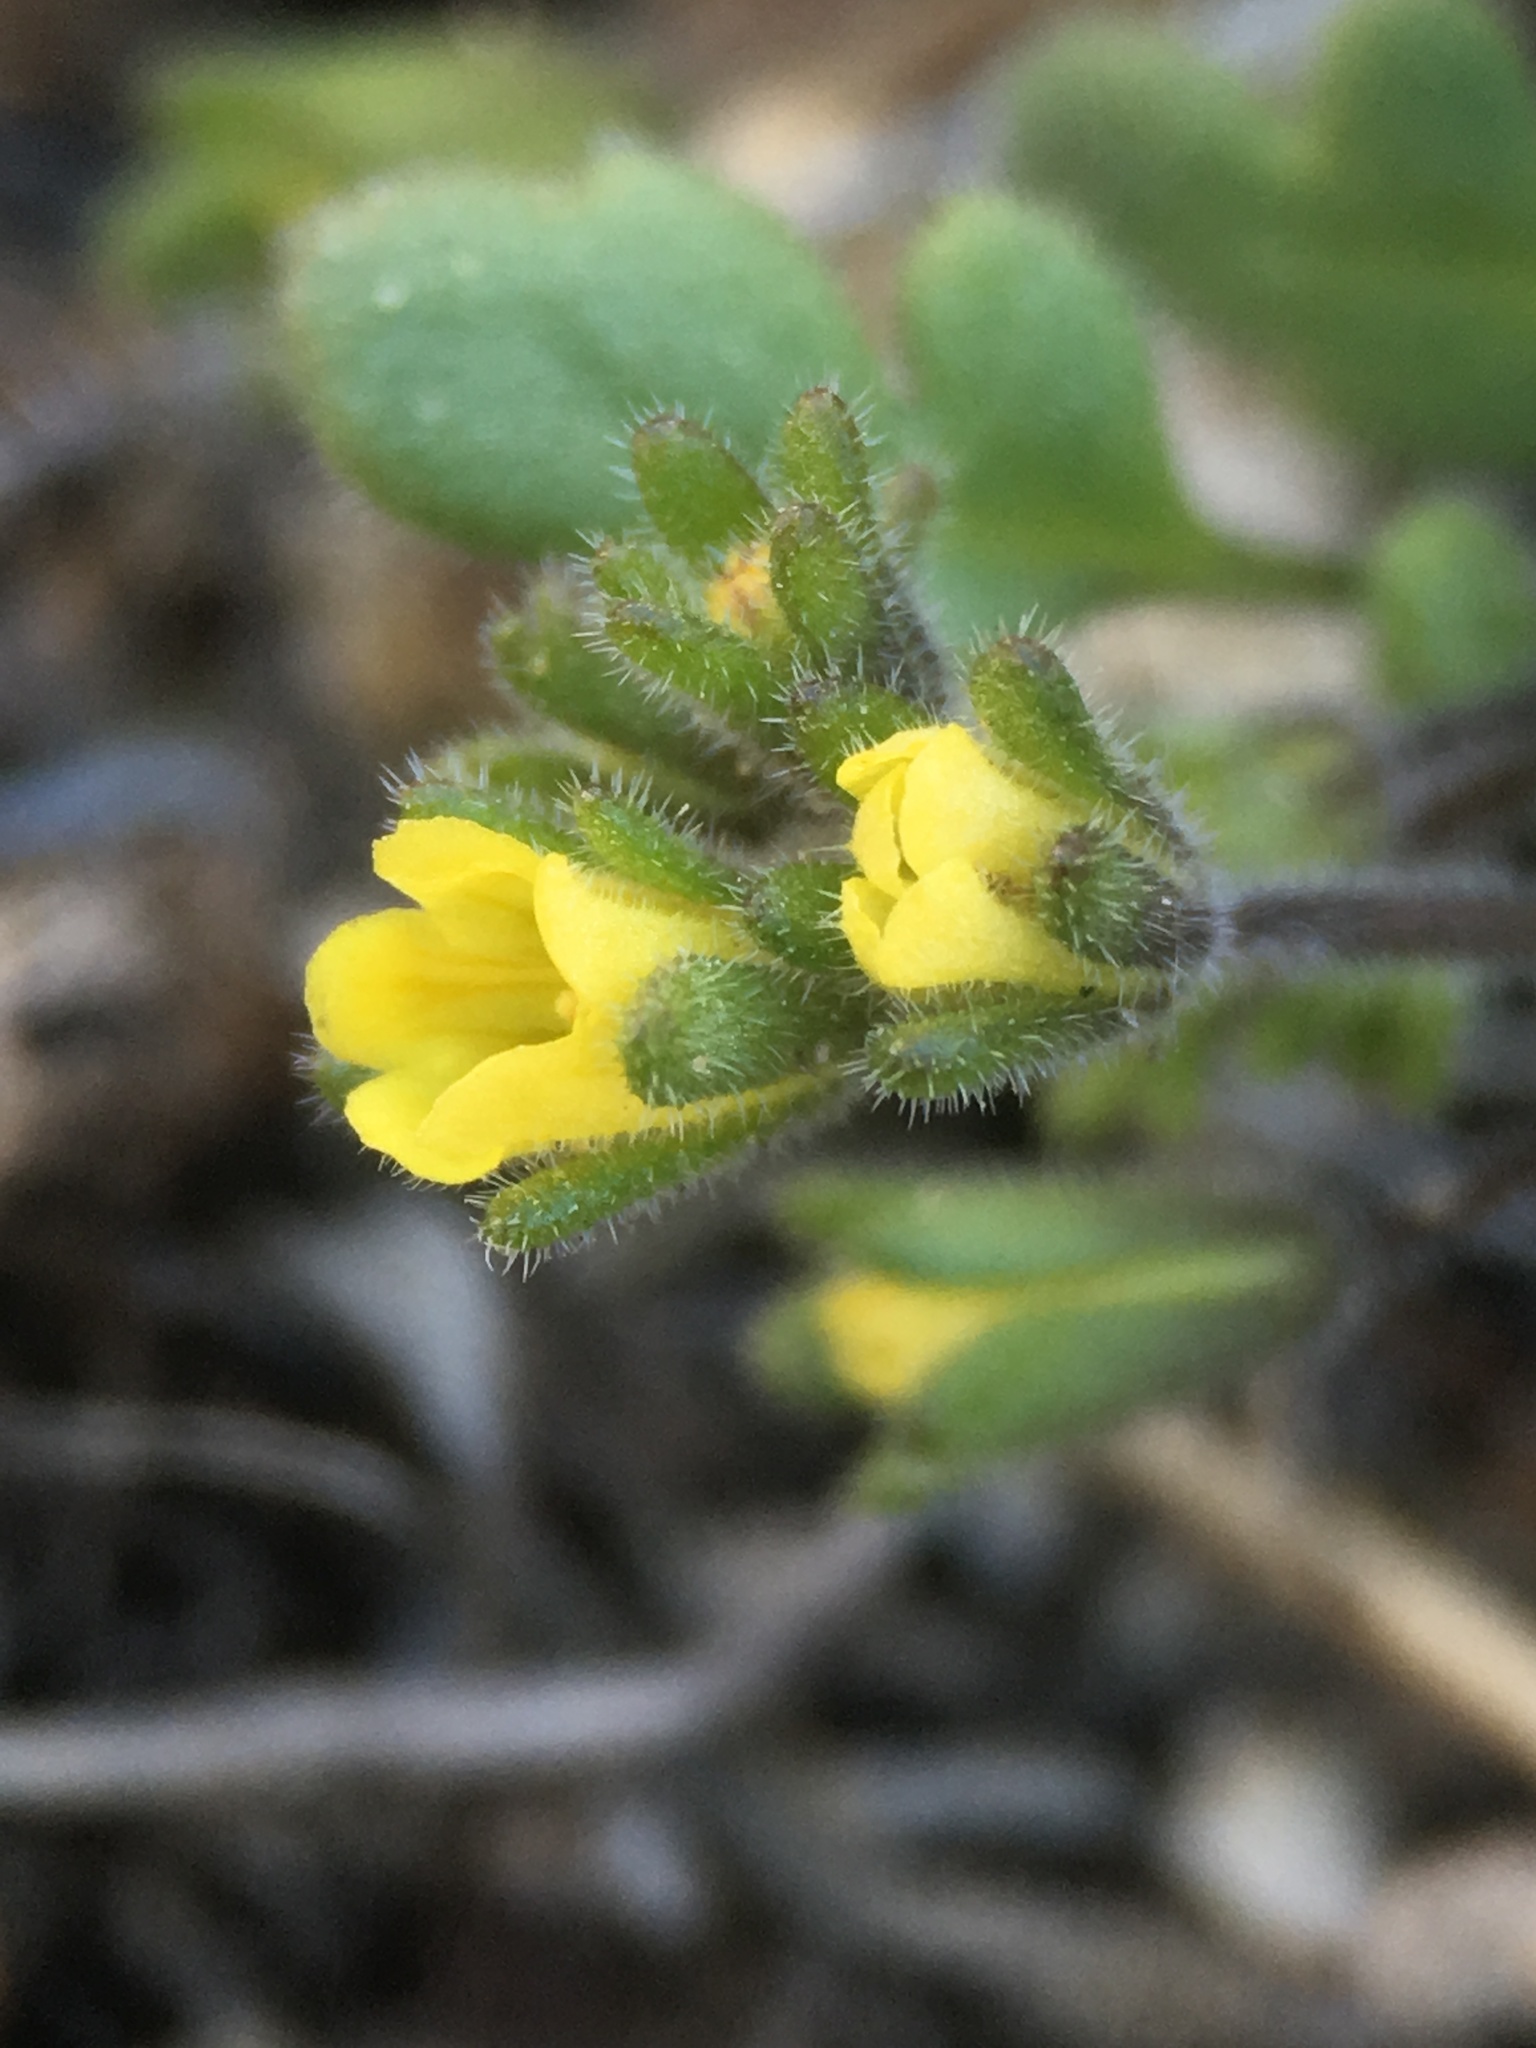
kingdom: Plantae
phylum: Tracheophyta
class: Magnoliopsida
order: Boraginales
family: Hydrophyllaceae
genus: Phacelia
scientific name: Phacelia inyoensis
